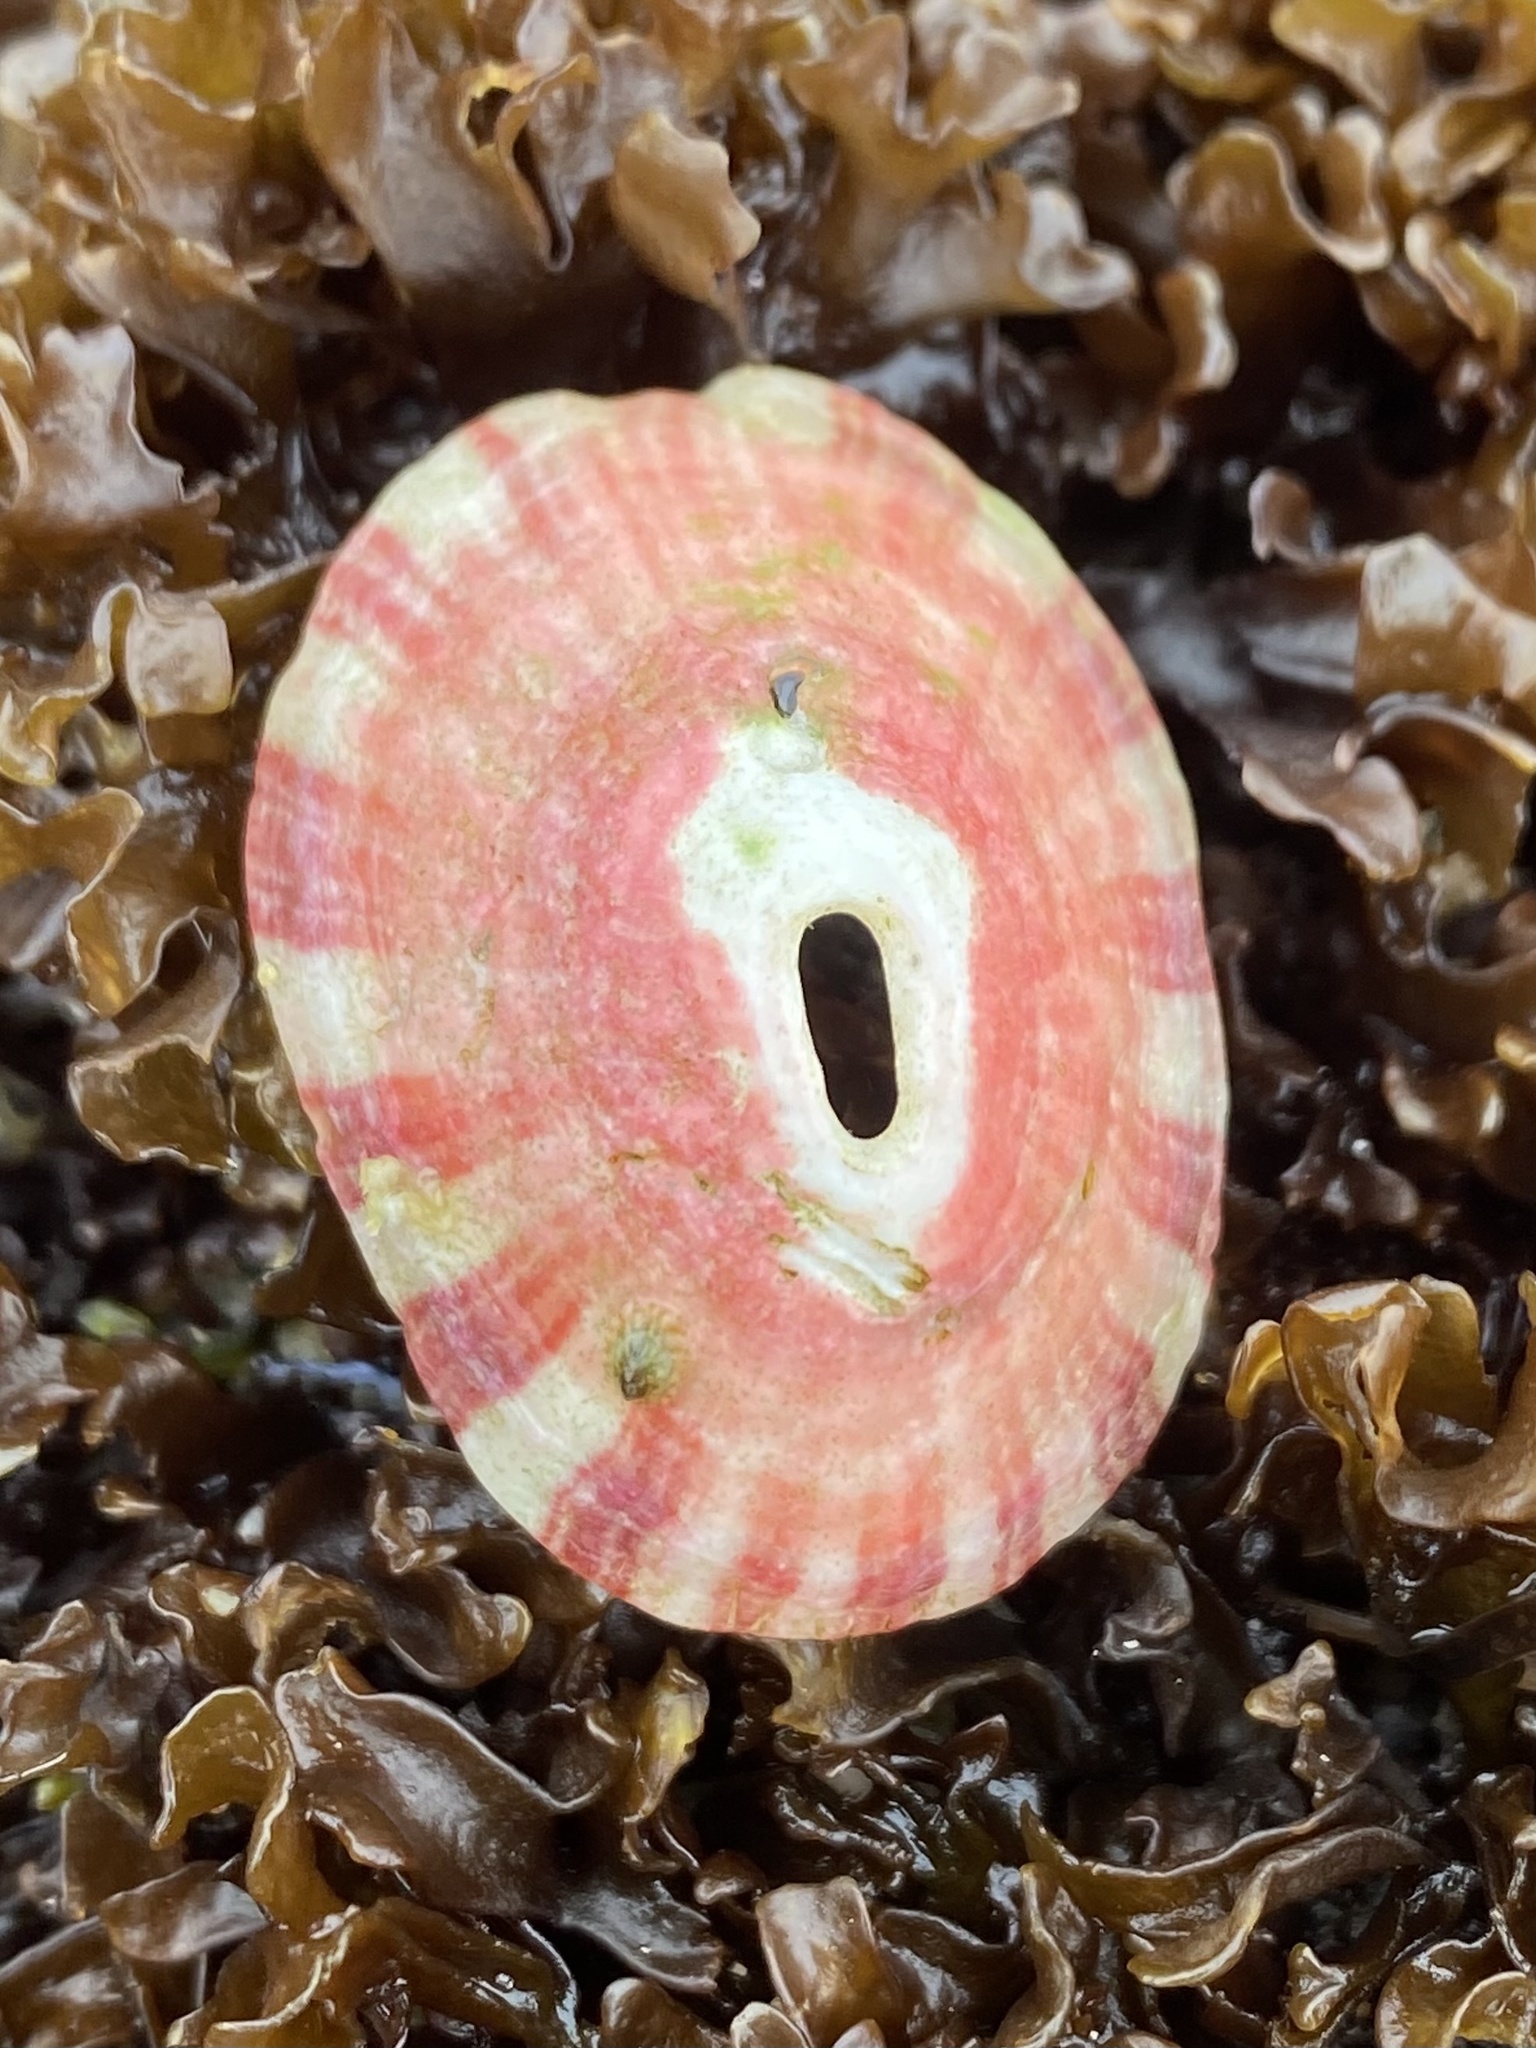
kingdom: Animalia
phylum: Mollusca
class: Gastropoda
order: Lepetellida
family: Fissurellidae
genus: Fissurella
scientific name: Fissurella volcano
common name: Volcano keyhole limpet
